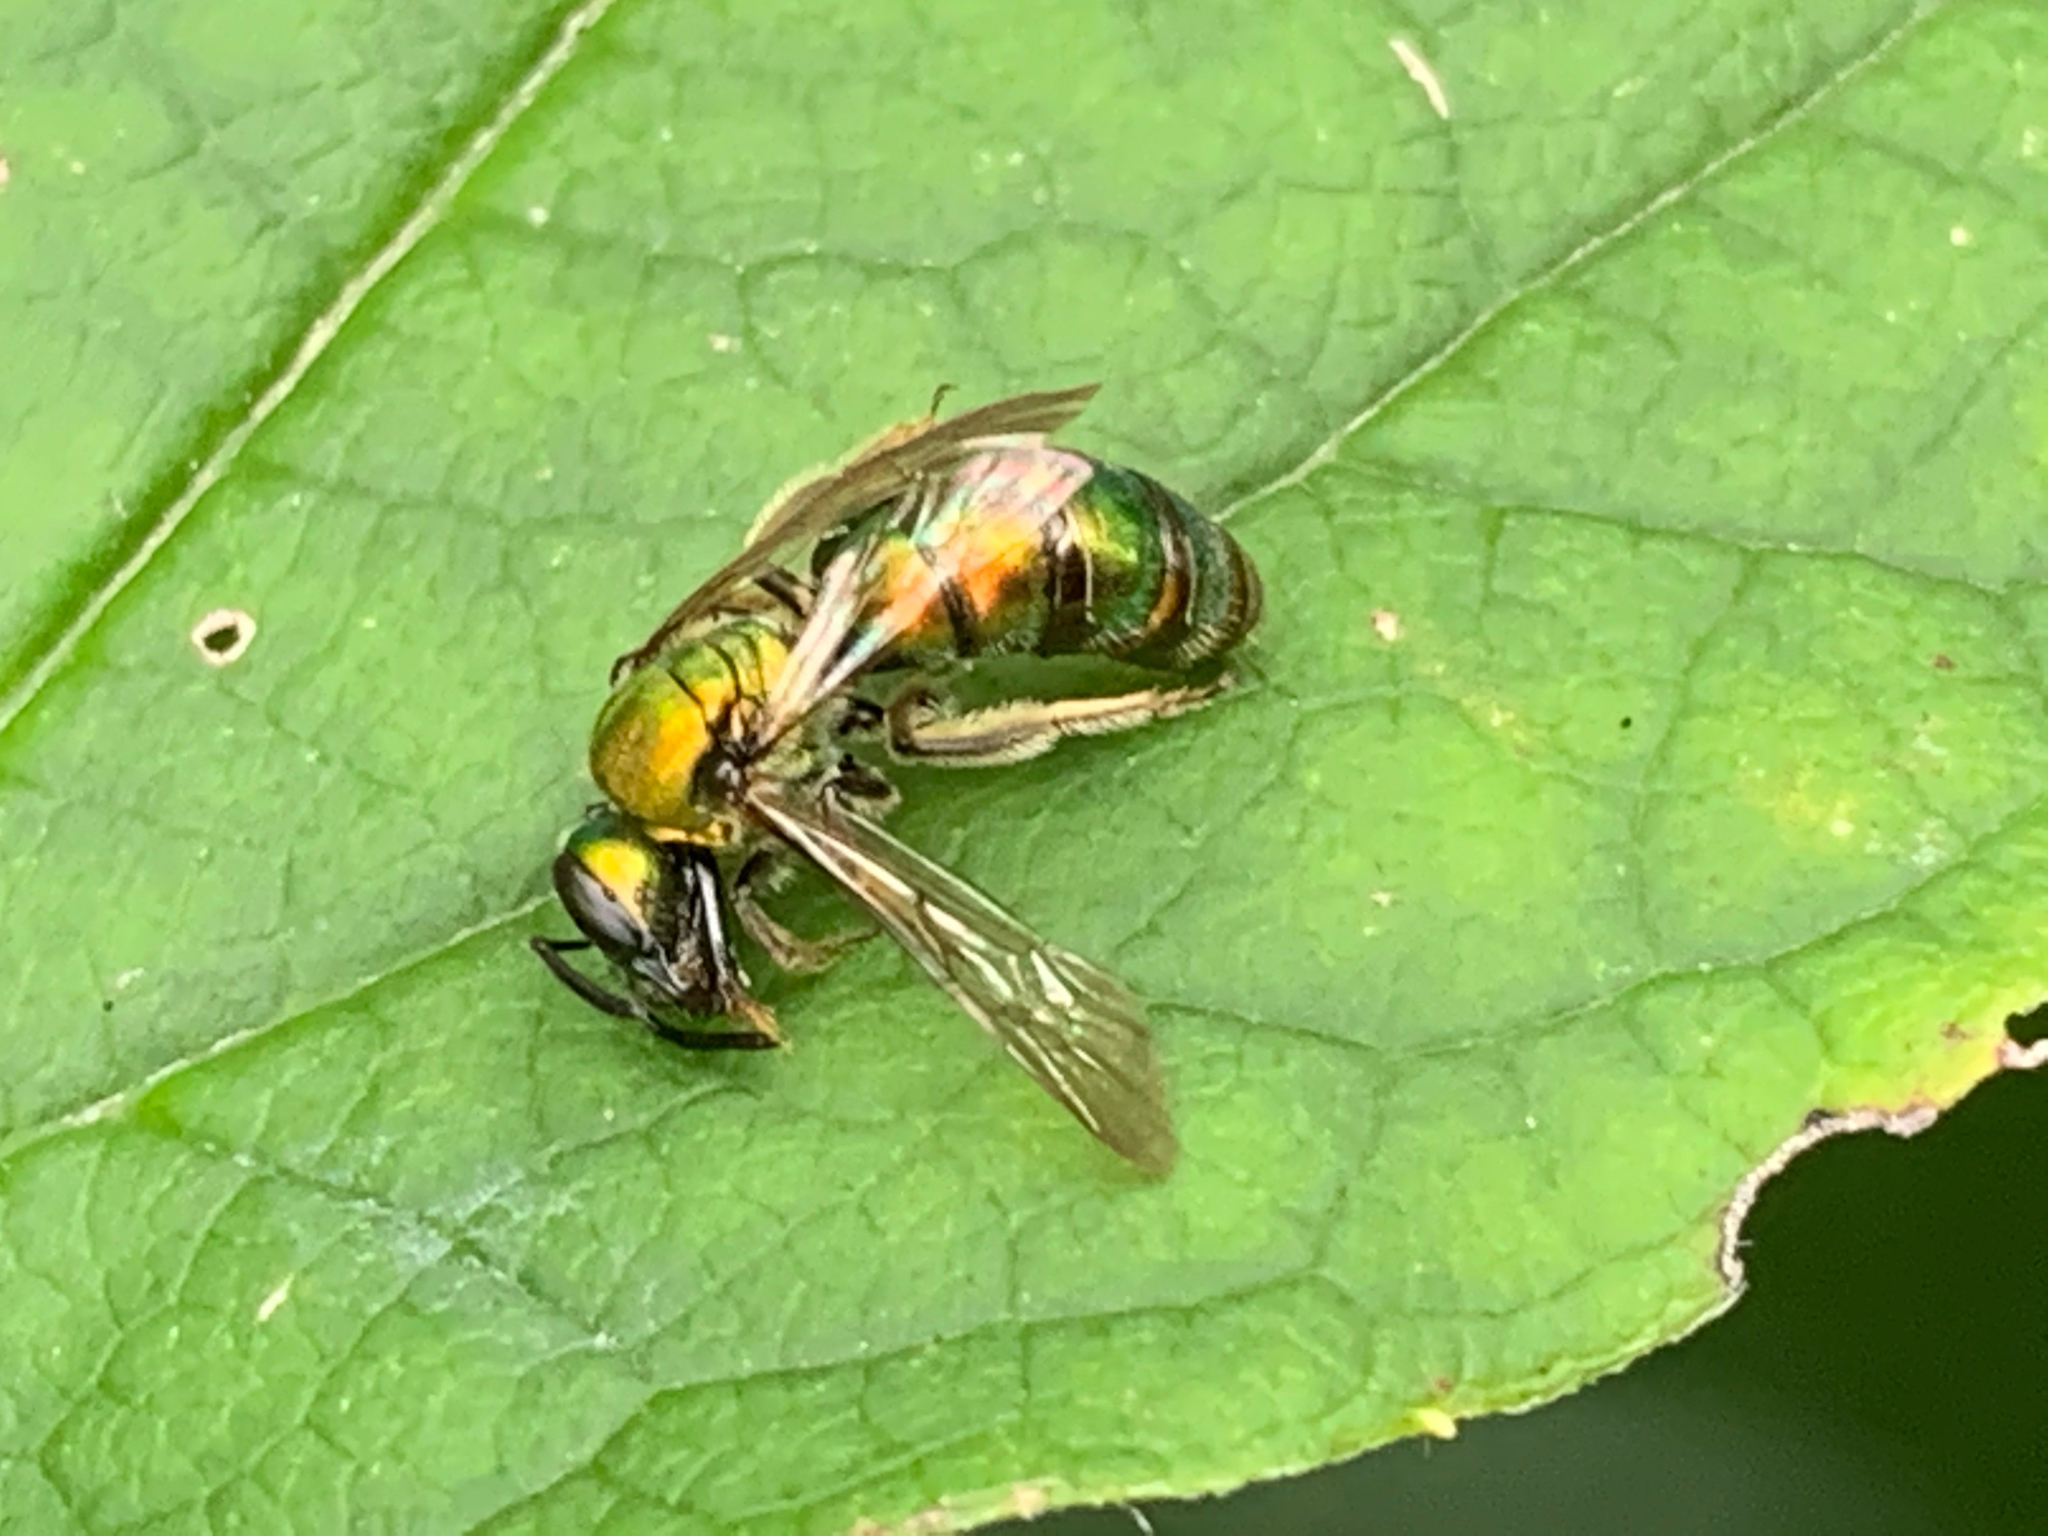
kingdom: Animalia
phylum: Arthropoda
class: Insecta
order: Hymenoptera
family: Halictidae
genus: Augochlora
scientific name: Augochlora pura
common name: Pure green sweat bee
